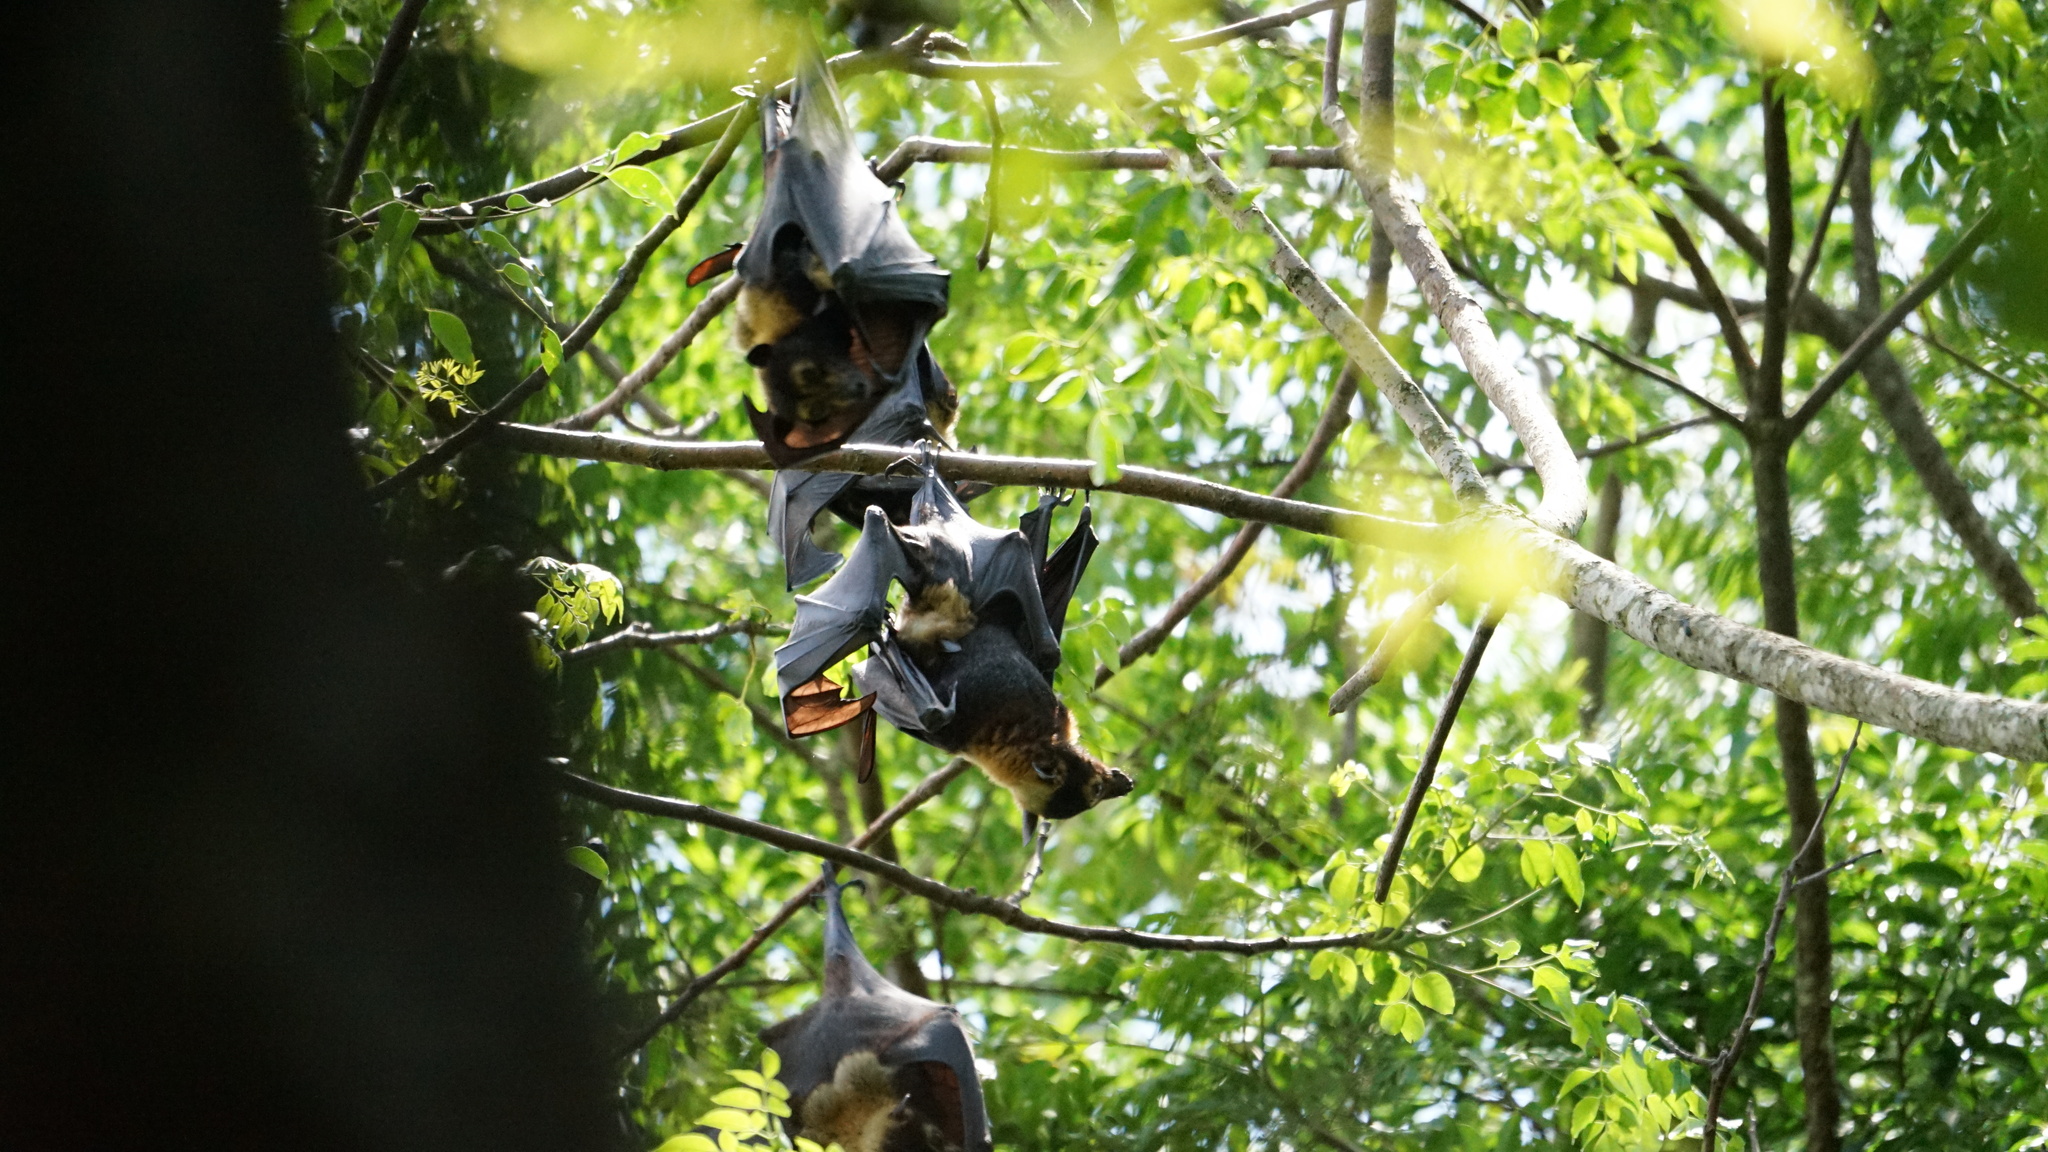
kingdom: Animalia
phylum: Chordata
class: Mammalia
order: Chiroptera
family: Pteropodidae
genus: Pteropus
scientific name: Pteropus conspicillatus
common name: Spectacled flying fox
